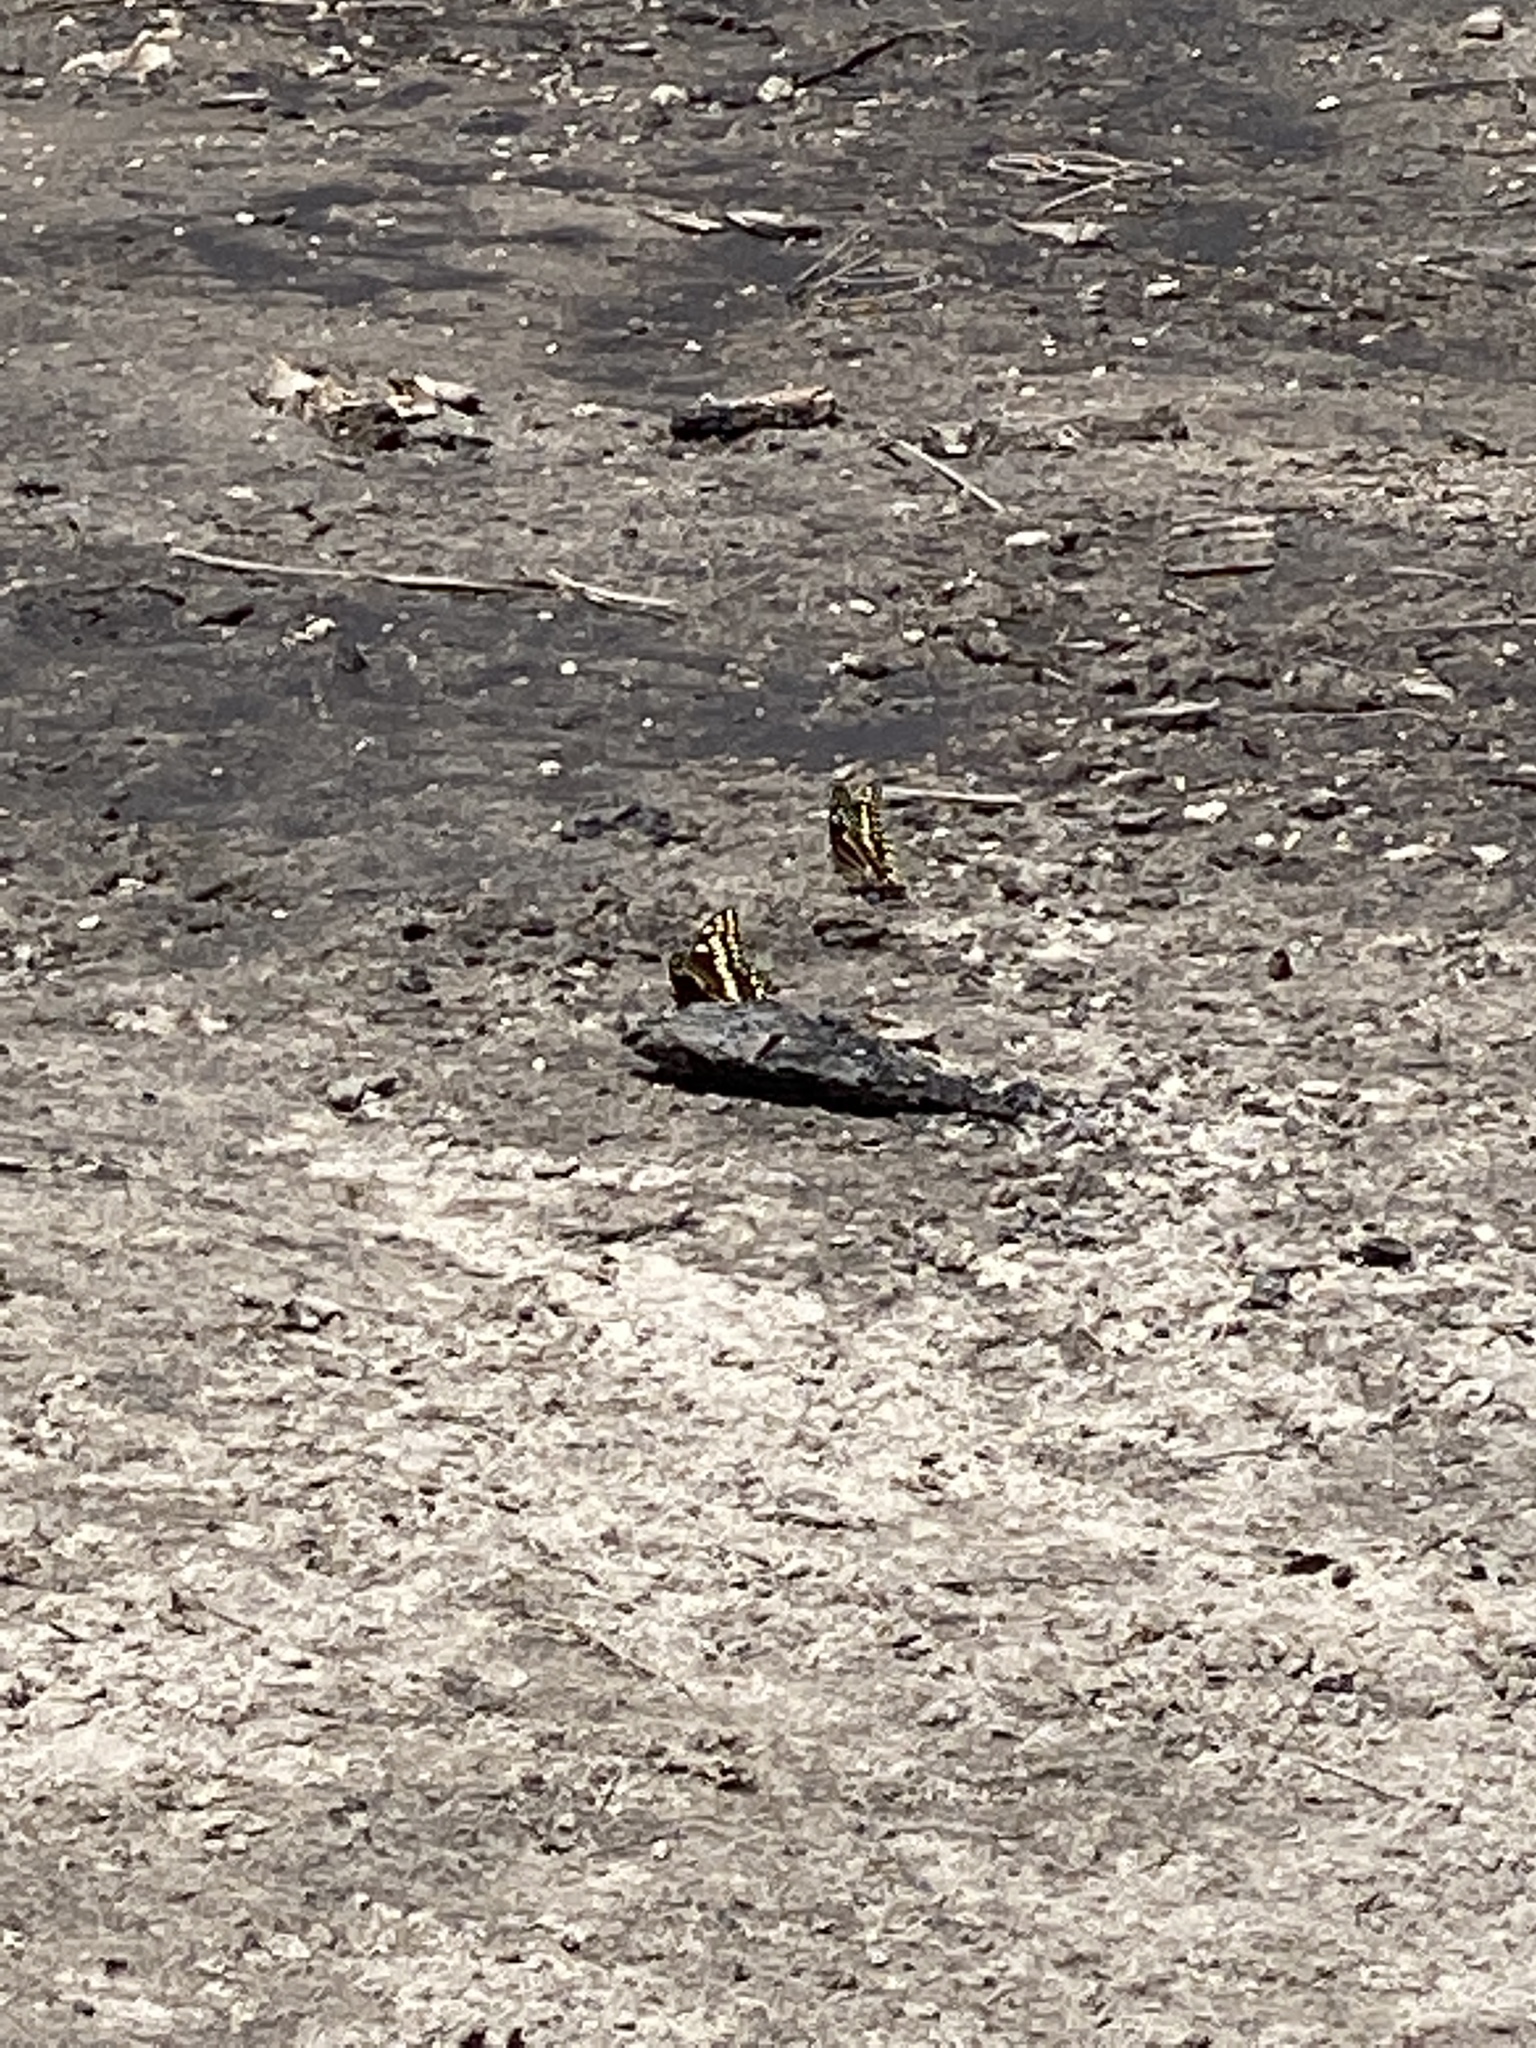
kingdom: Animalia
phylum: Arthropoda
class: Insecta
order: Lepidoptera
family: Papilionidae
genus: Papilio
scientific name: Papilio palamedes
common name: Palamedes swallowtail
